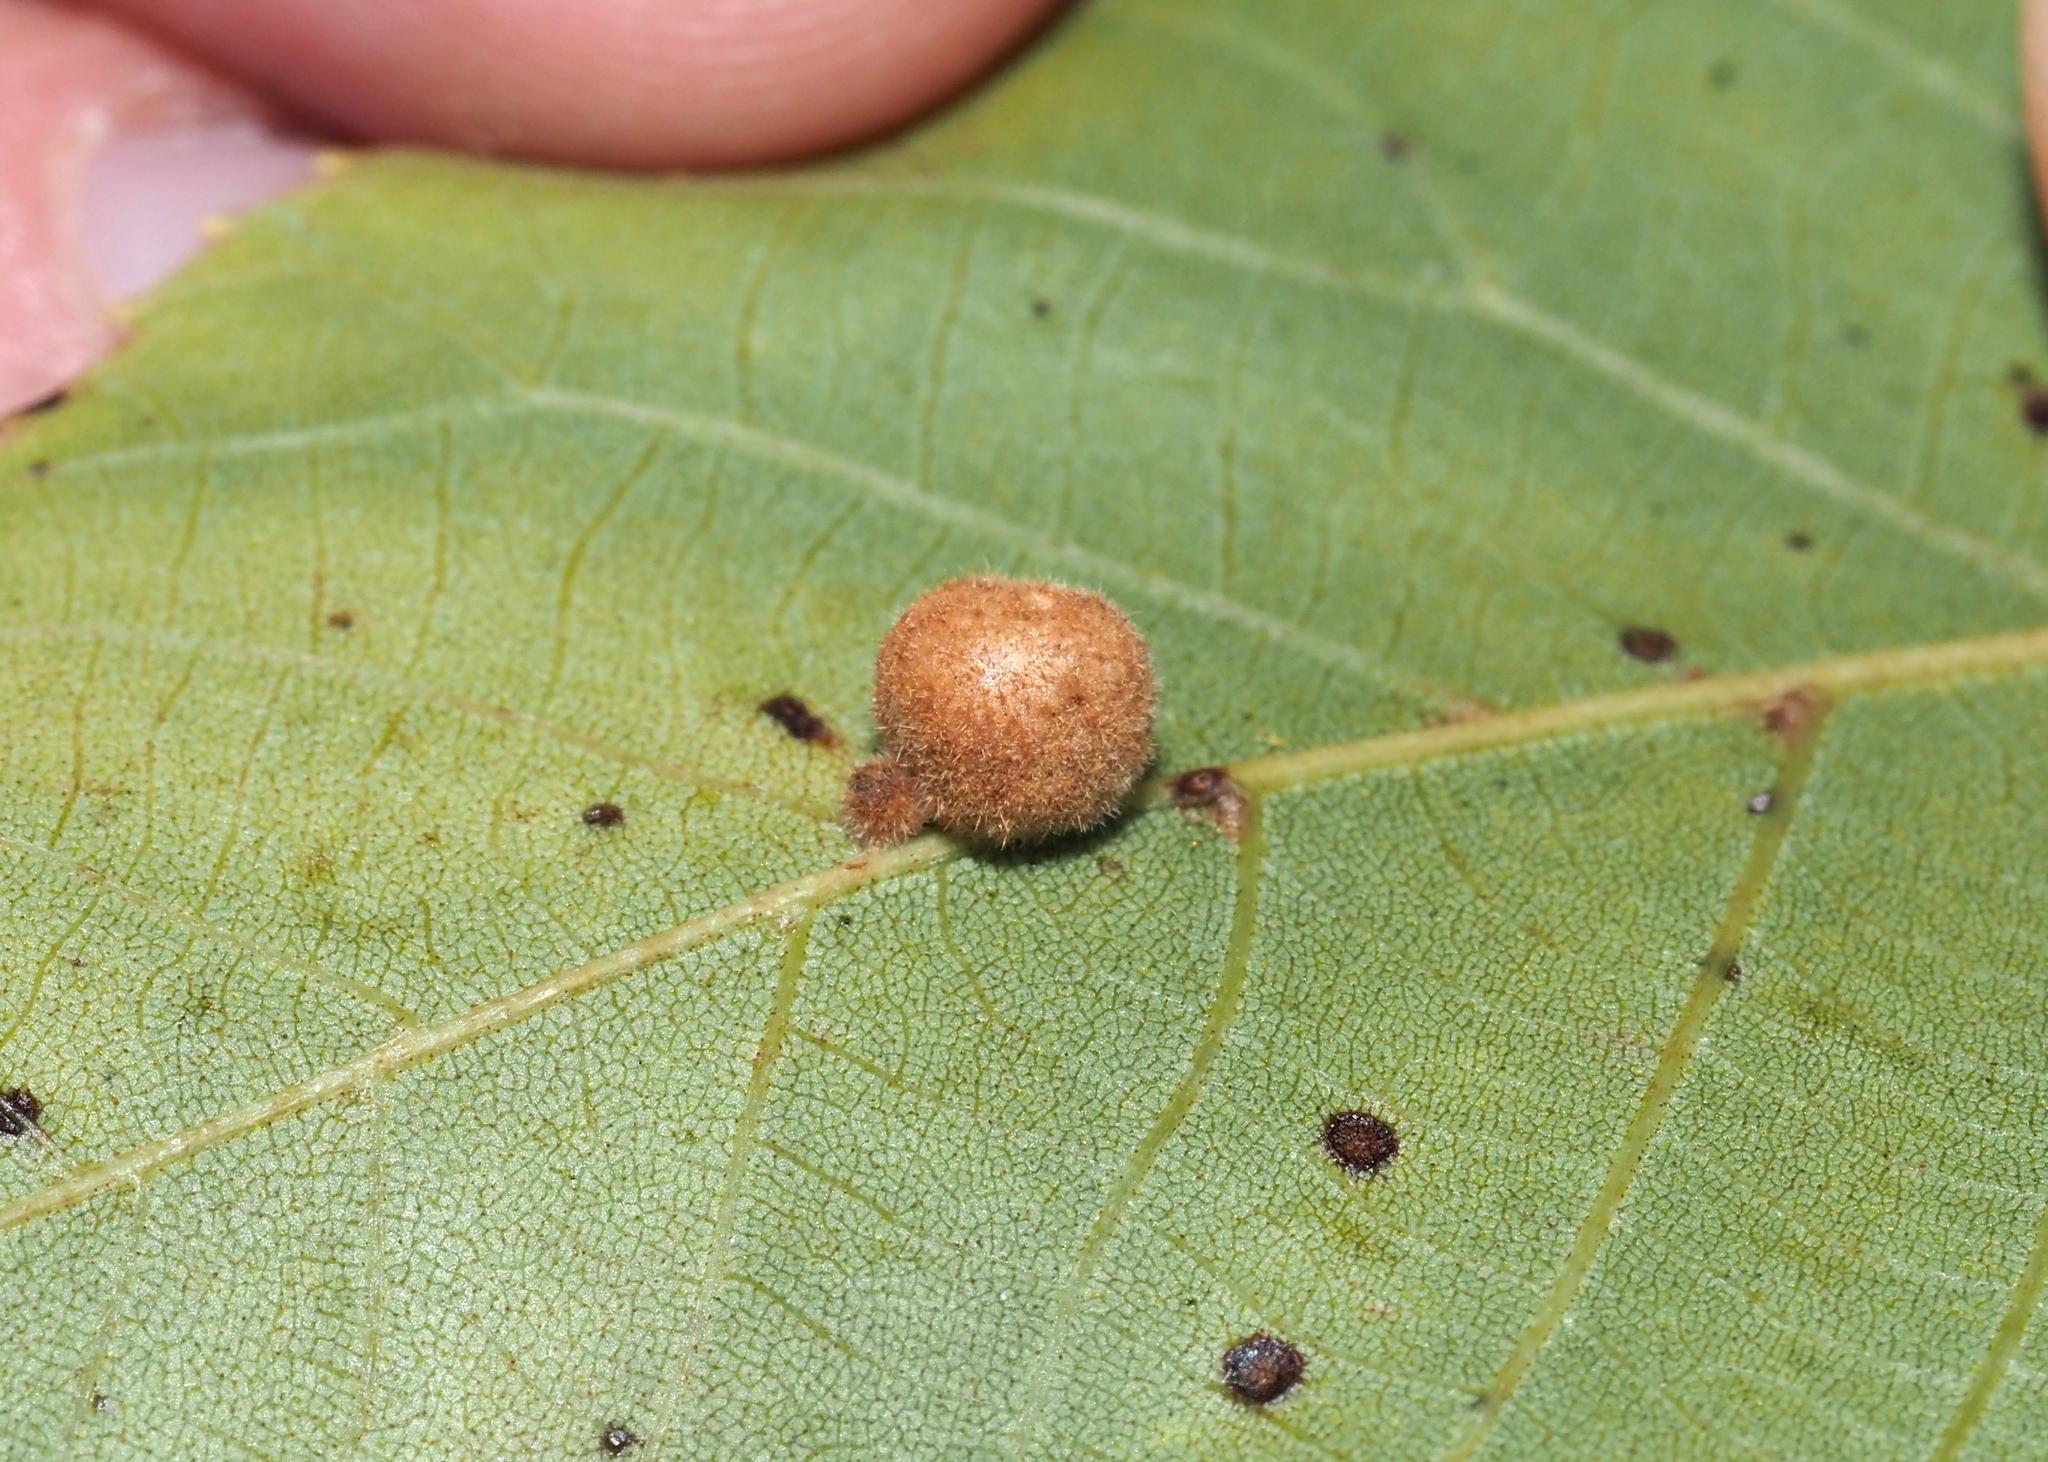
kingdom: Animalia
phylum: Arthropoda
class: Insecta
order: Diptera
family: Cecidomyiidae
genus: Caryomyia
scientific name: Caryomyia
